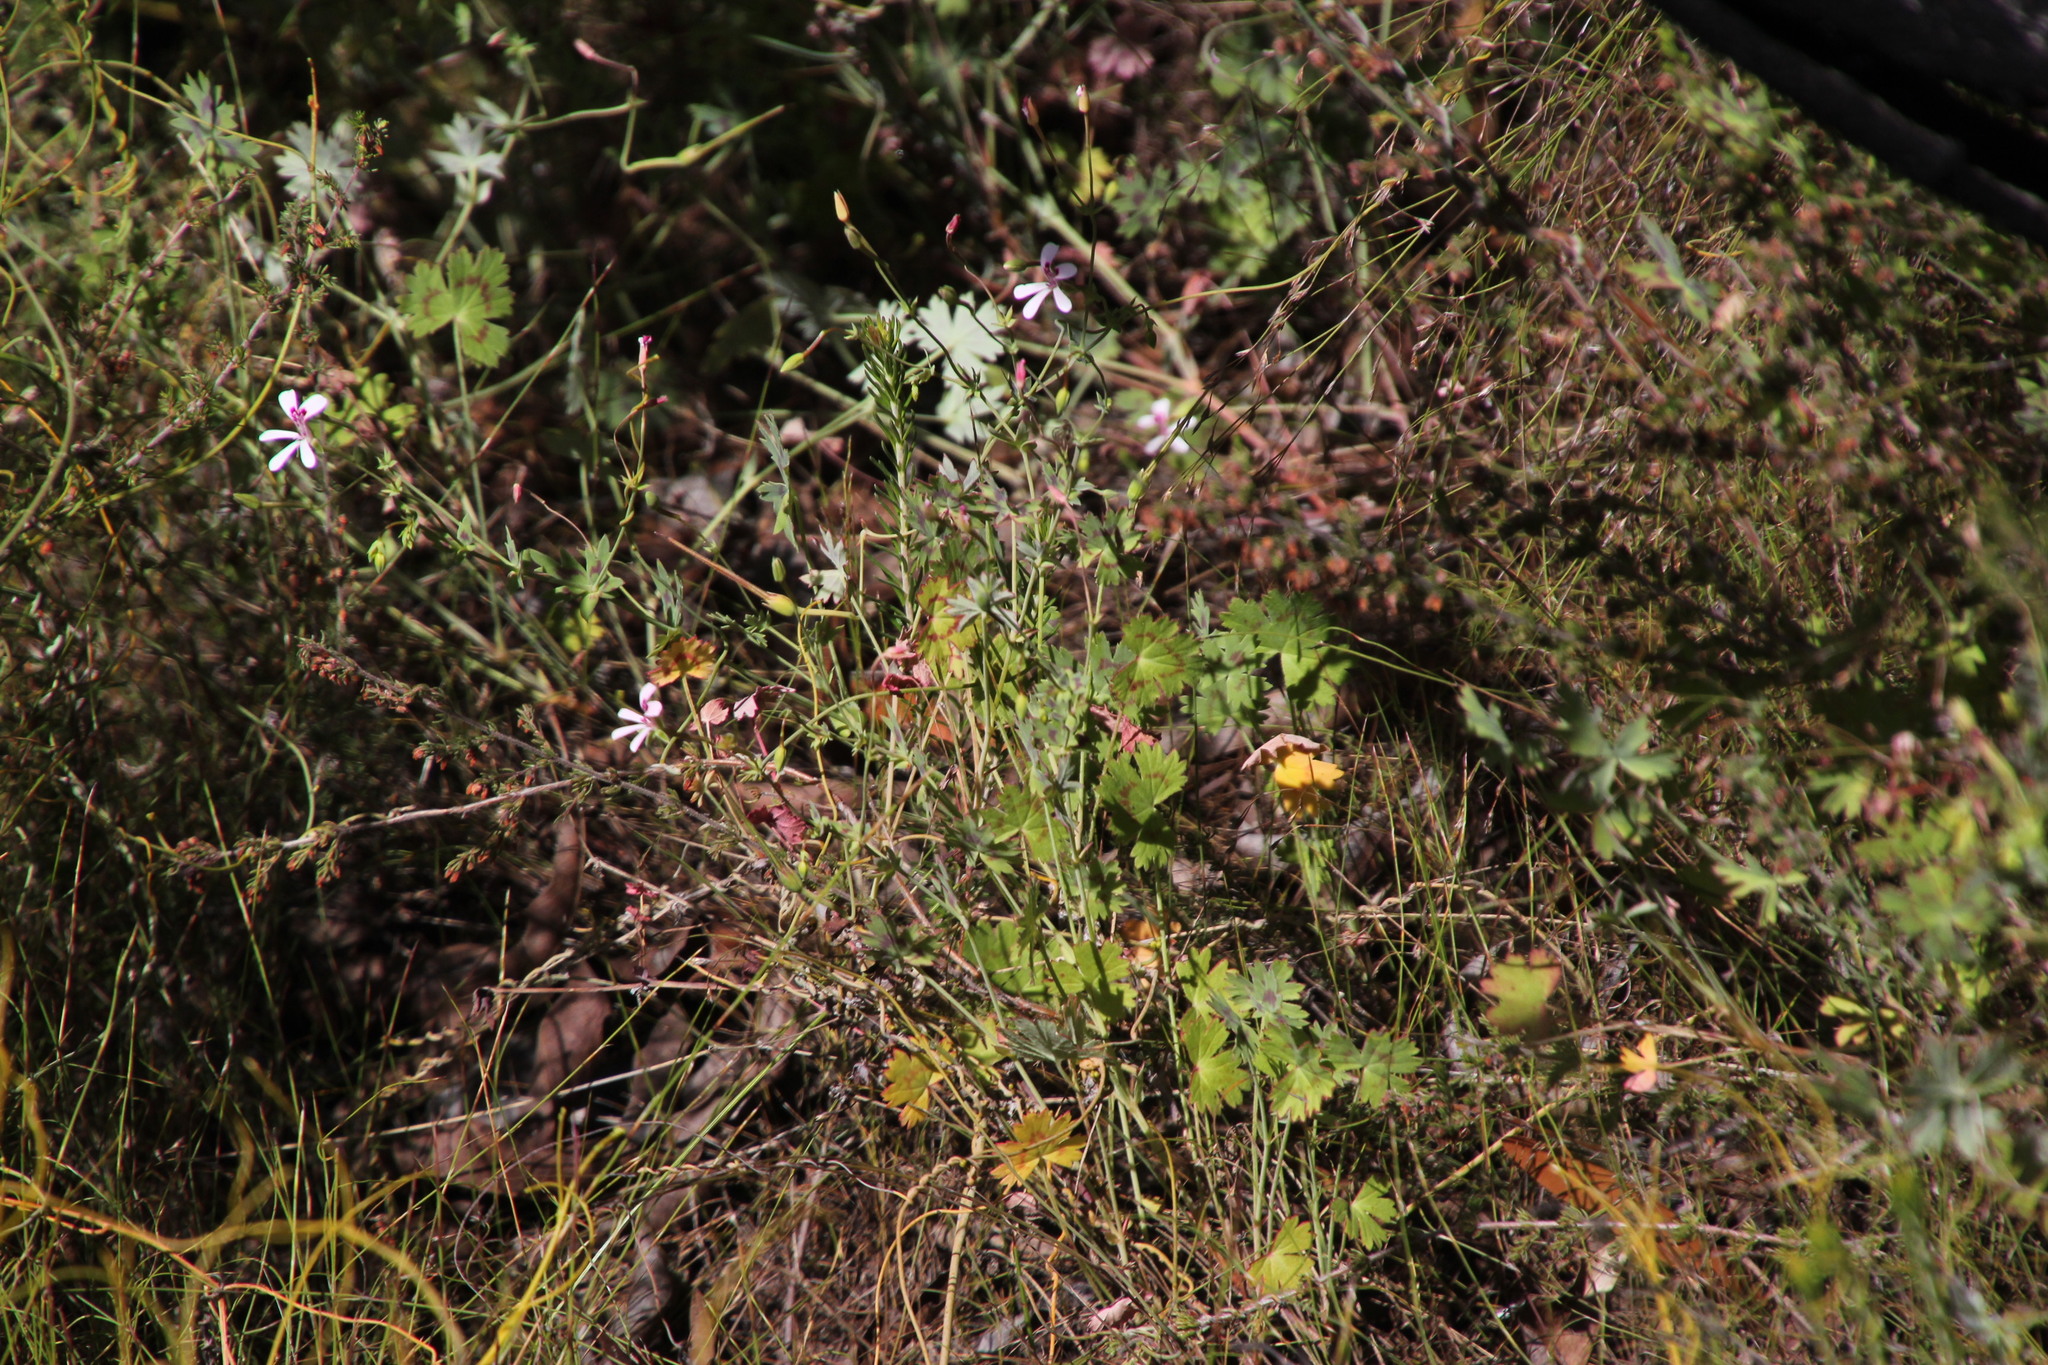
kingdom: Plantae
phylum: Tracheophyta
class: Magnoliopsida
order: Geraniales
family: Geraniaceae
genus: Pelargonium
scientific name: Pelargonium patulum
